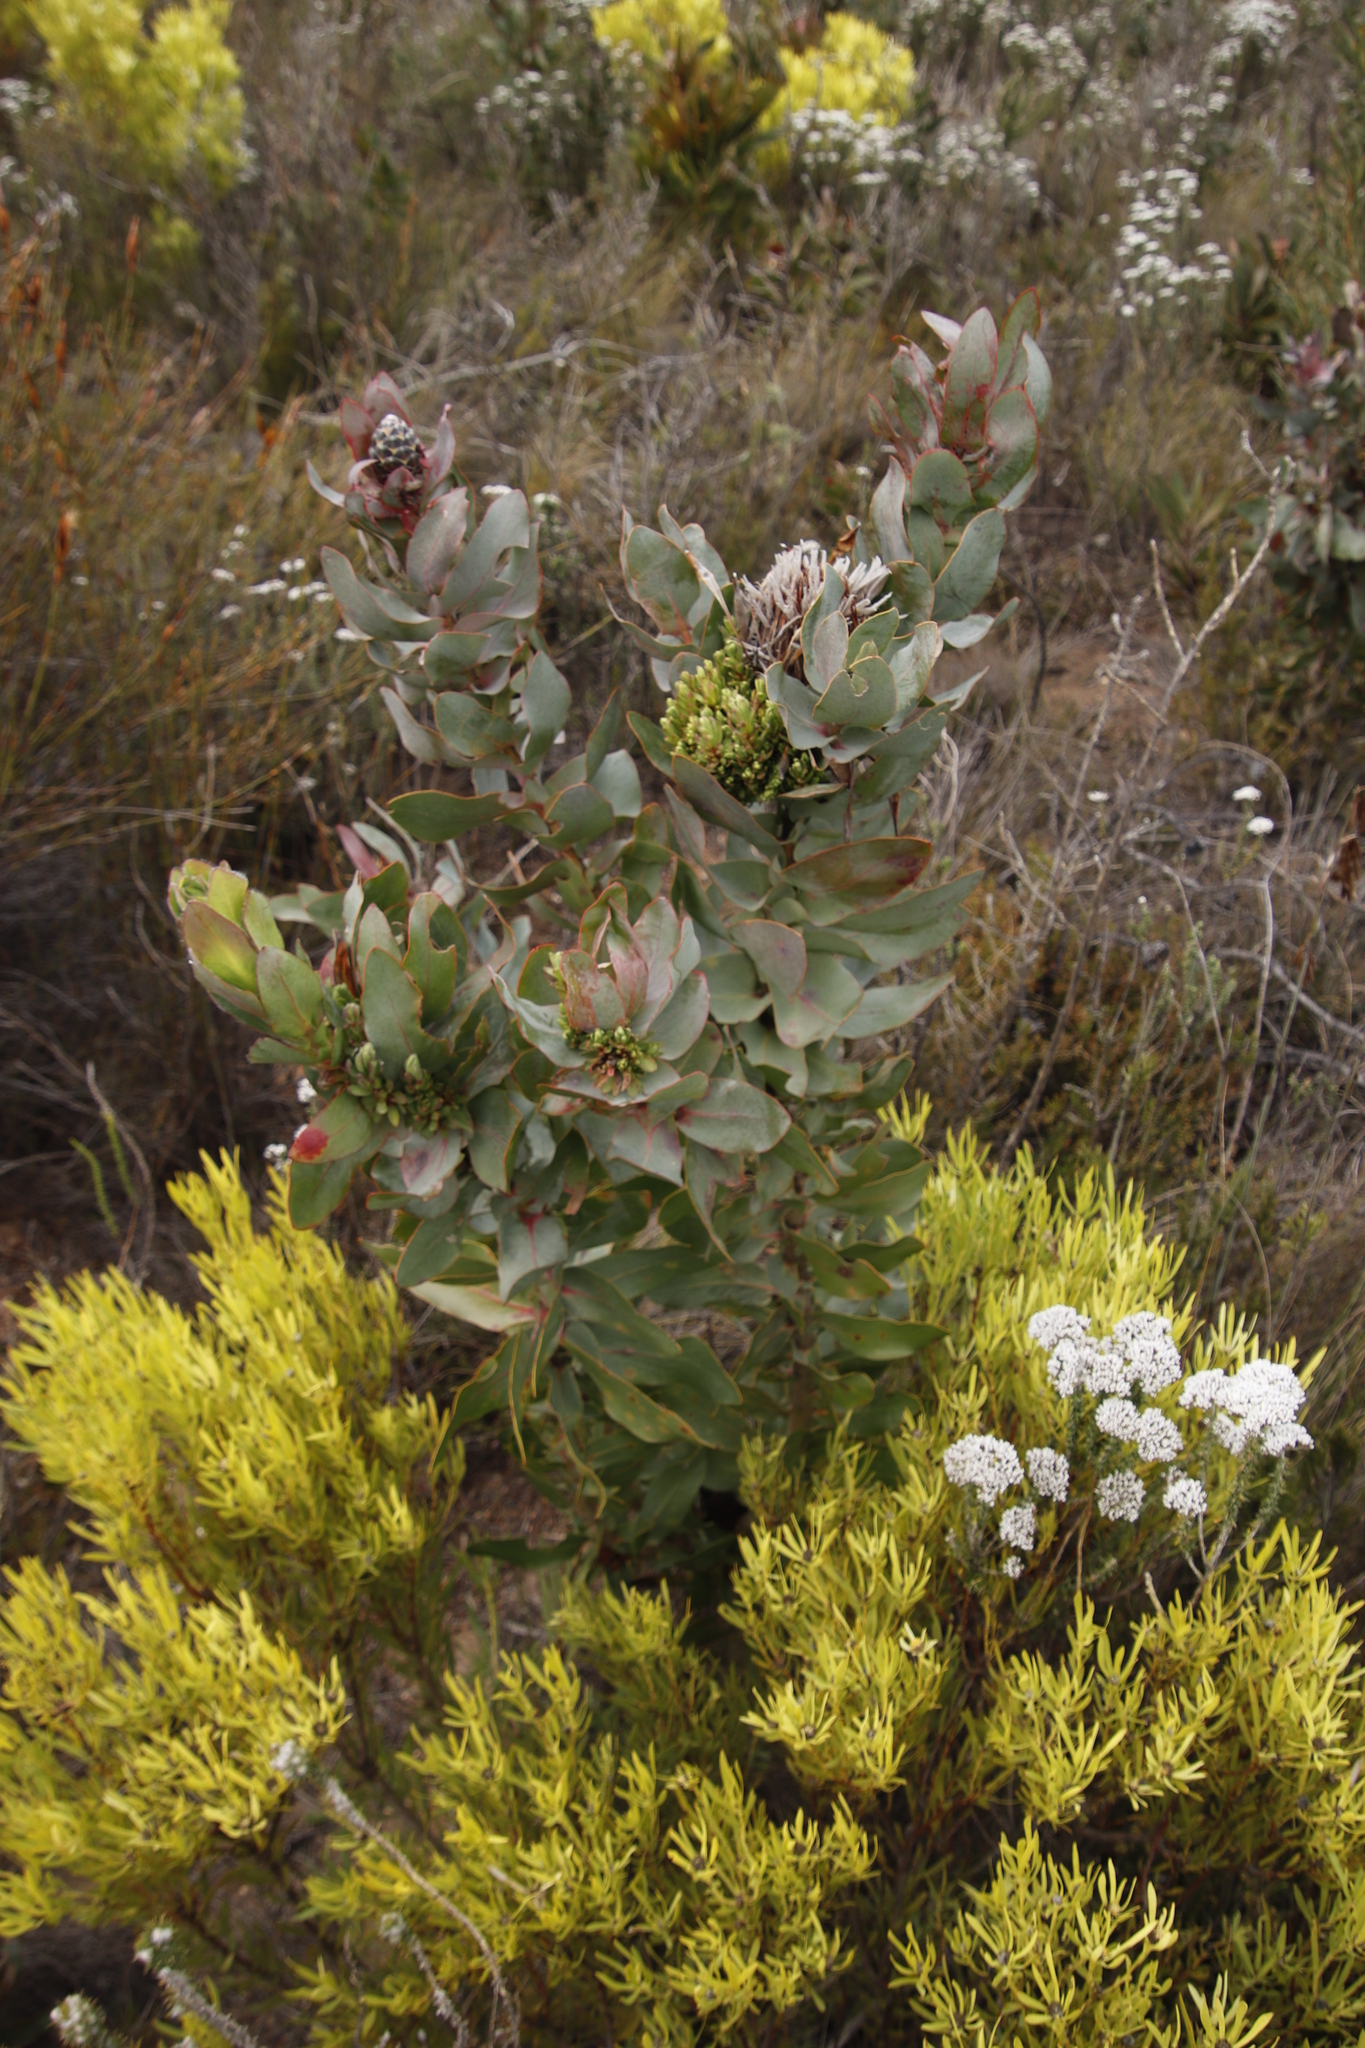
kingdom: Bacteria
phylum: Firmicutes
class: Bacilli
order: Acholeplasmatales
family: Acholeplasmataceae
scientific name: Acholeplasmataceae
